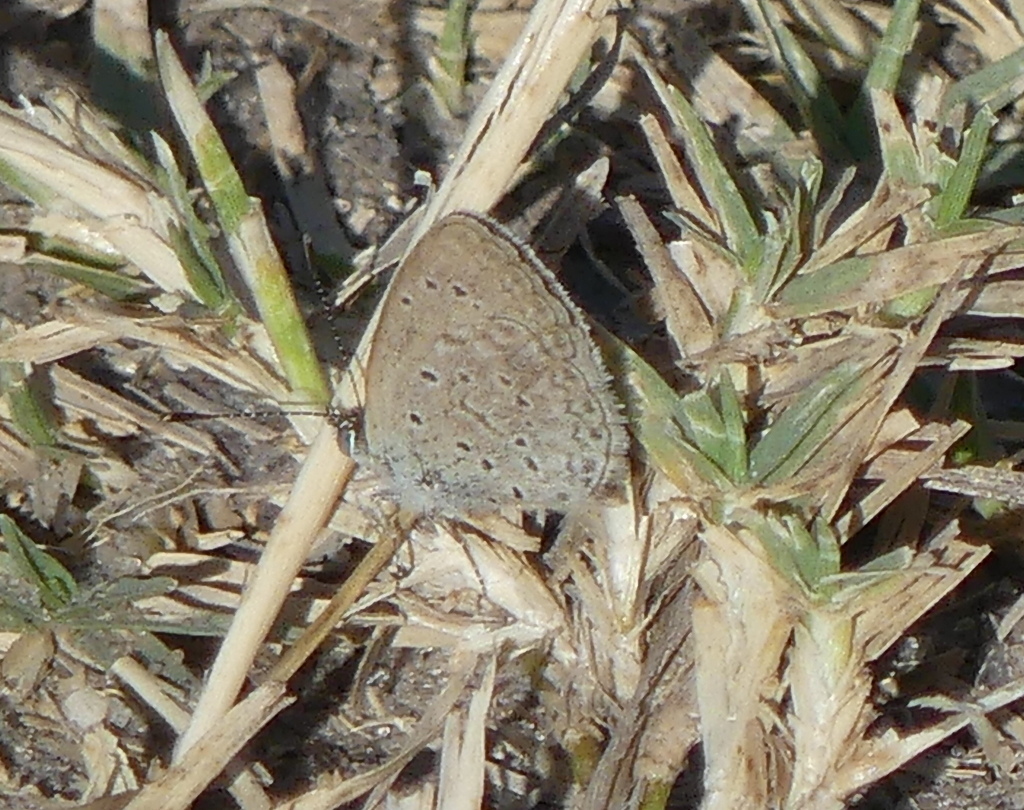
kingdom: Animalia
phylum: Arthropoda
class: Insecta
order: Lepidoptera
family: Lycaenidae
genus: Zizeeria
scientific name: Zizeeria knysna
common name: African grass blue
